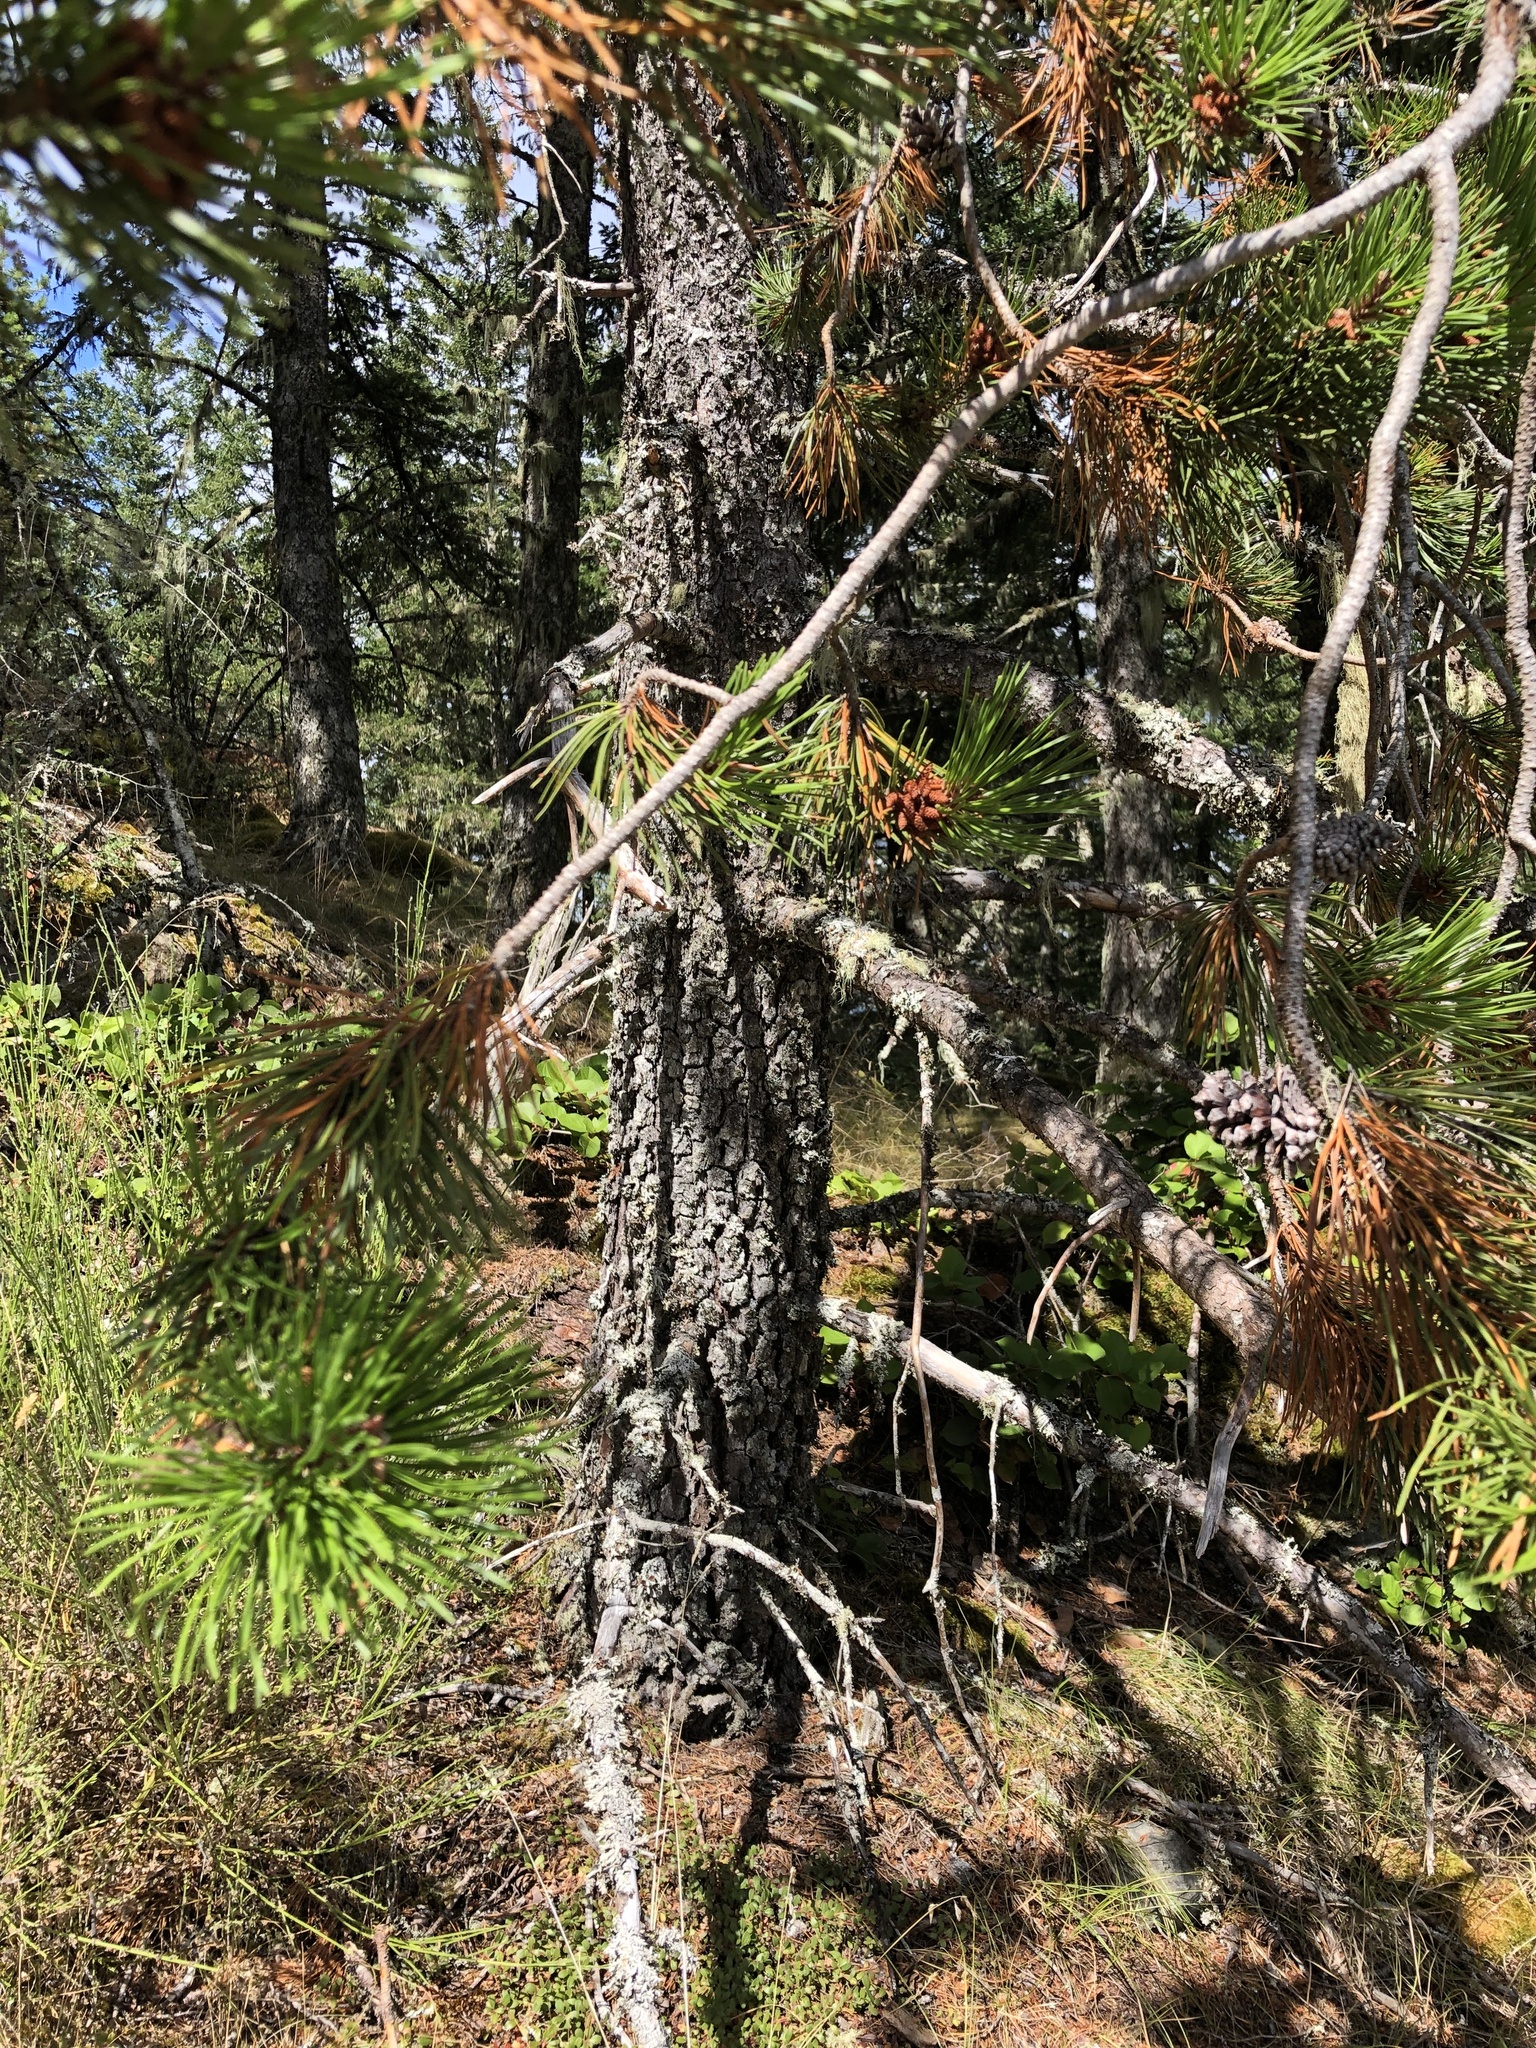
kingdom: Plantae
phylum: Tracheophyta
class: Pinopsida
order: Pinales
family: Pinaceae
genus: Pinus
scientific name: Pinus contorta
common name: Lodgepole pine
